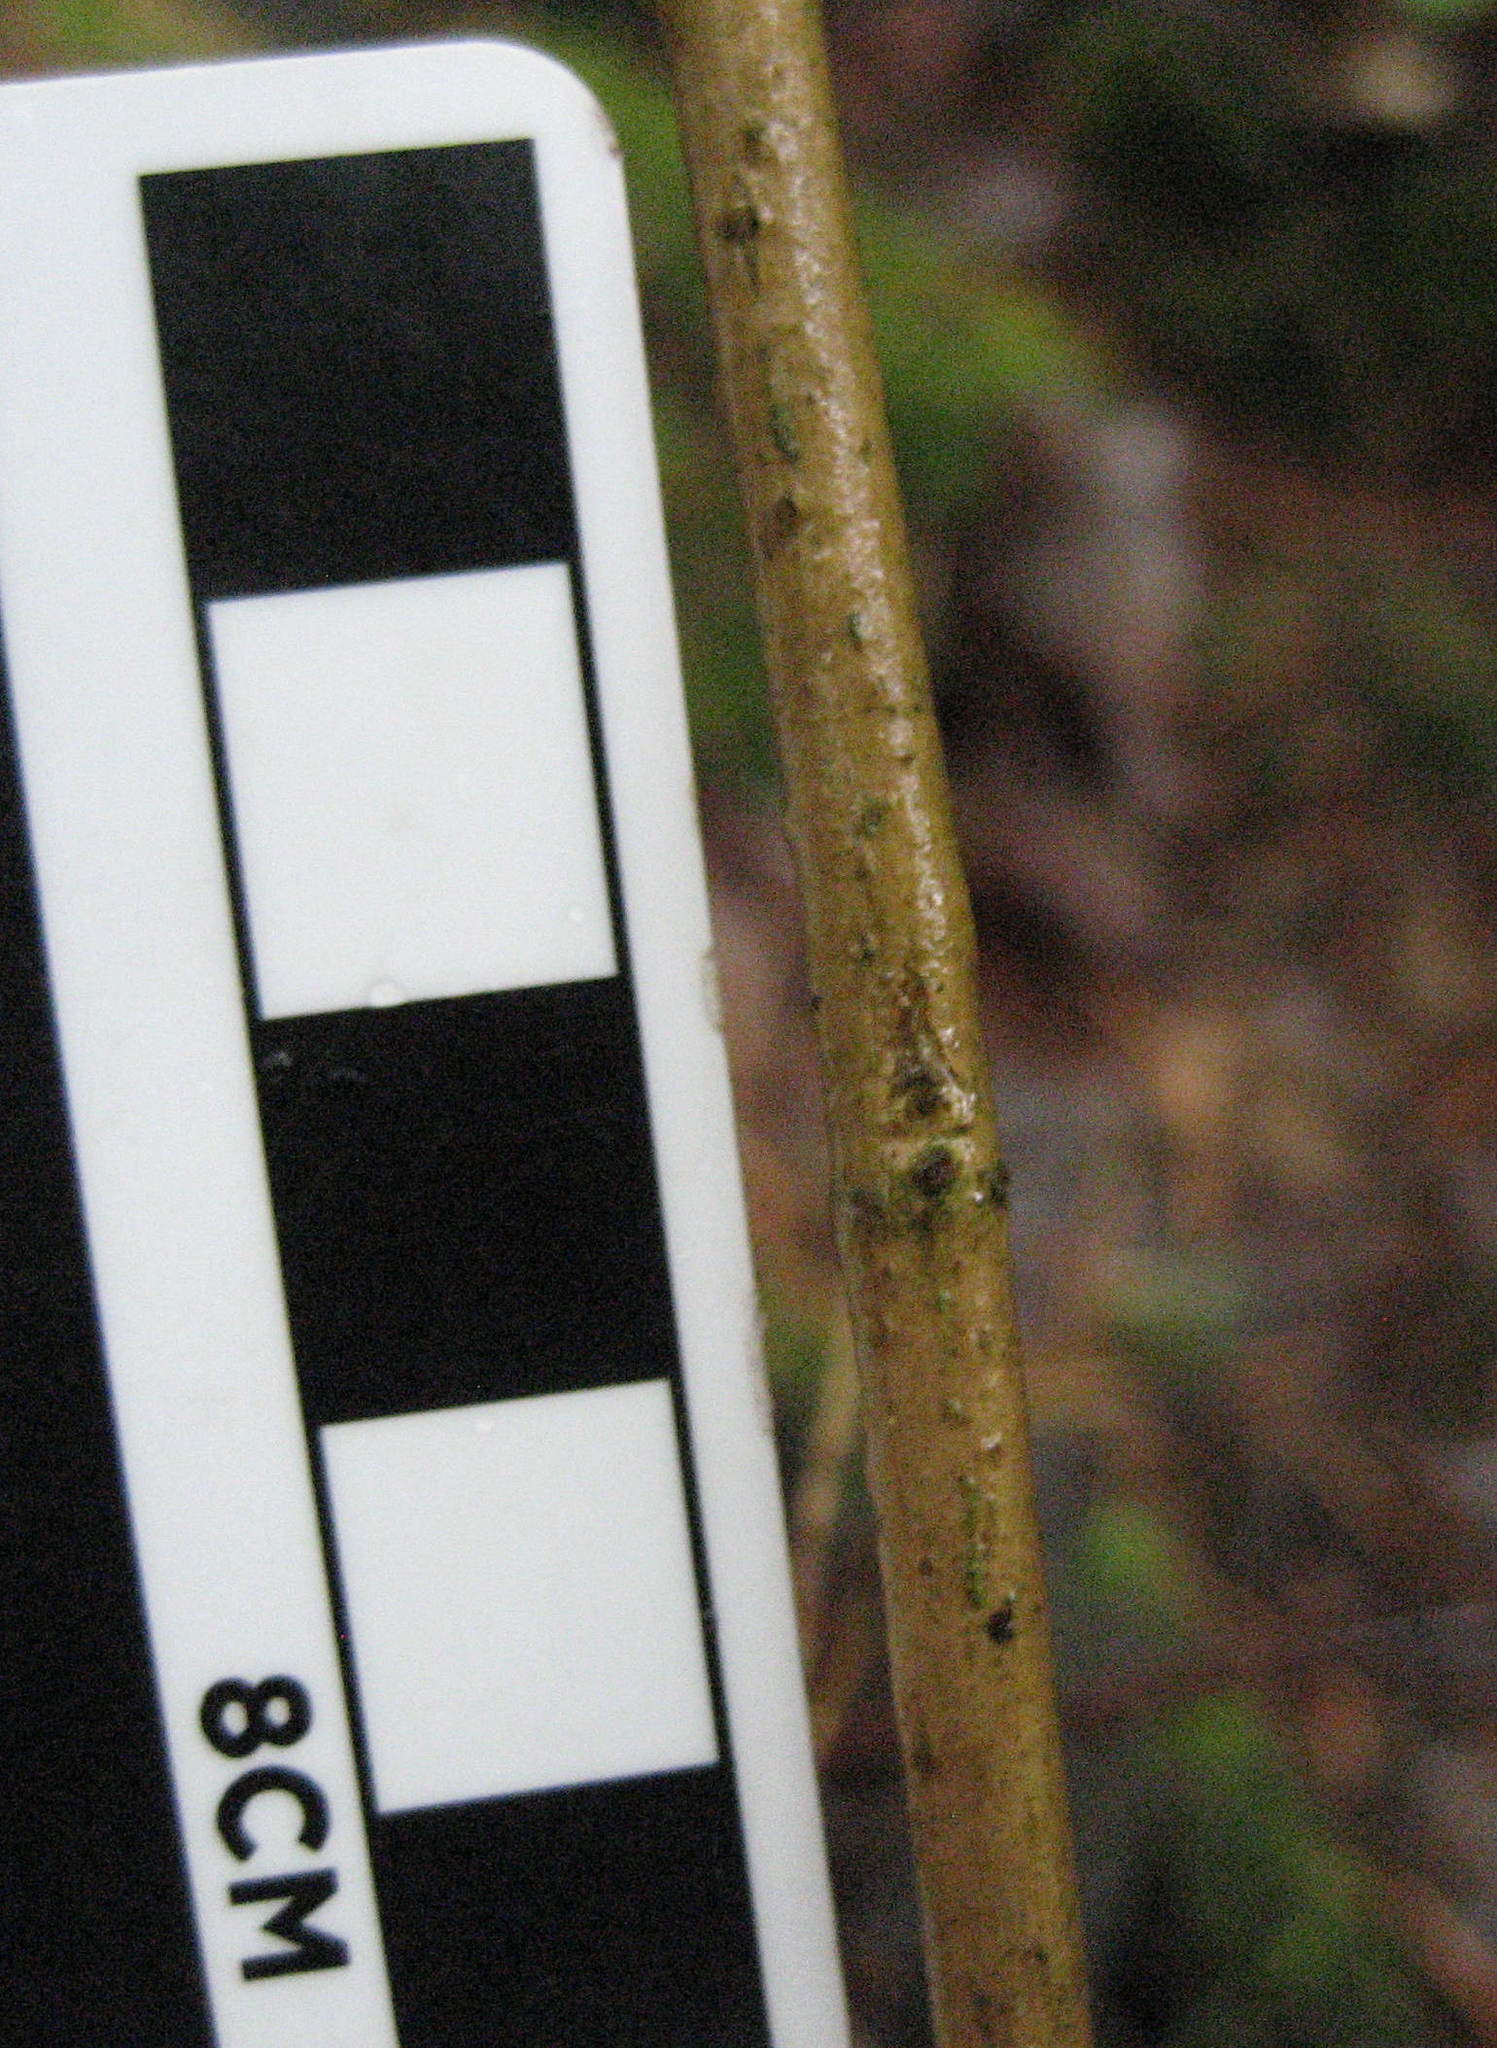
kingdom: Plantae
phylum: Tracheophyta
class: Magnoliopsida
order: Dipsacales
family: Caprifoliaceae
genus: Lonicera
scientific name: Lonicera canadensis
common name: American fly-honeysuckle
